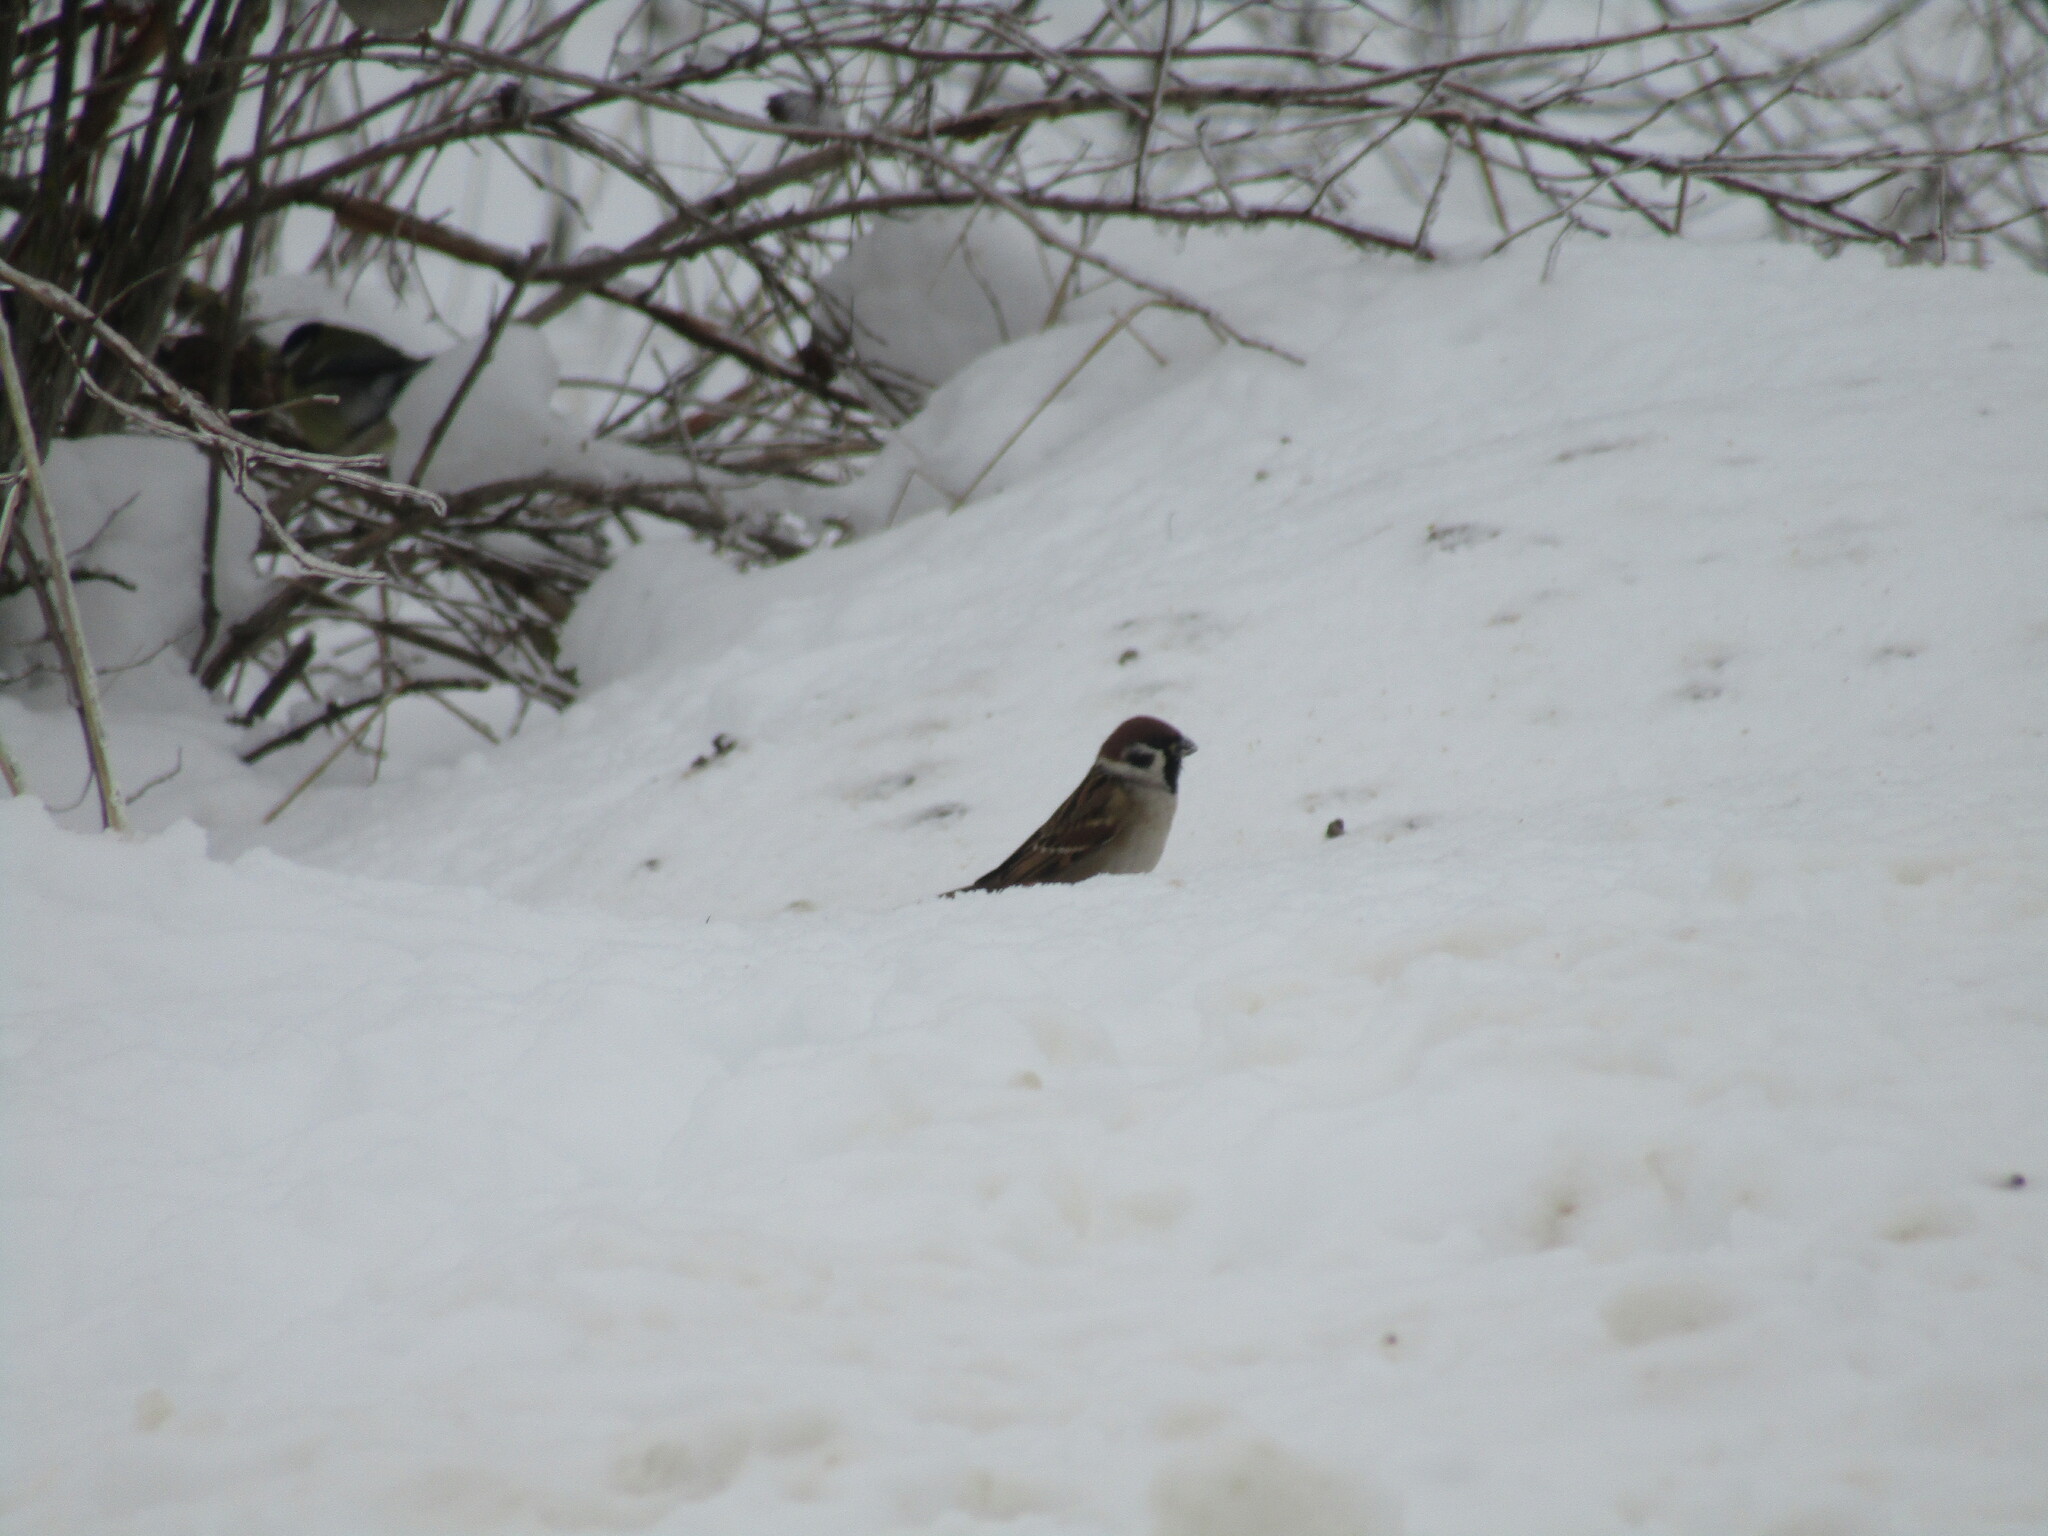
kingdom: Animalia
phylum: Chordata
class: Aves
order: Passeriformes
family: Passeridae
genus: Passer
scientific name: Passer montanus
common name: Eurasian tree sparrow
